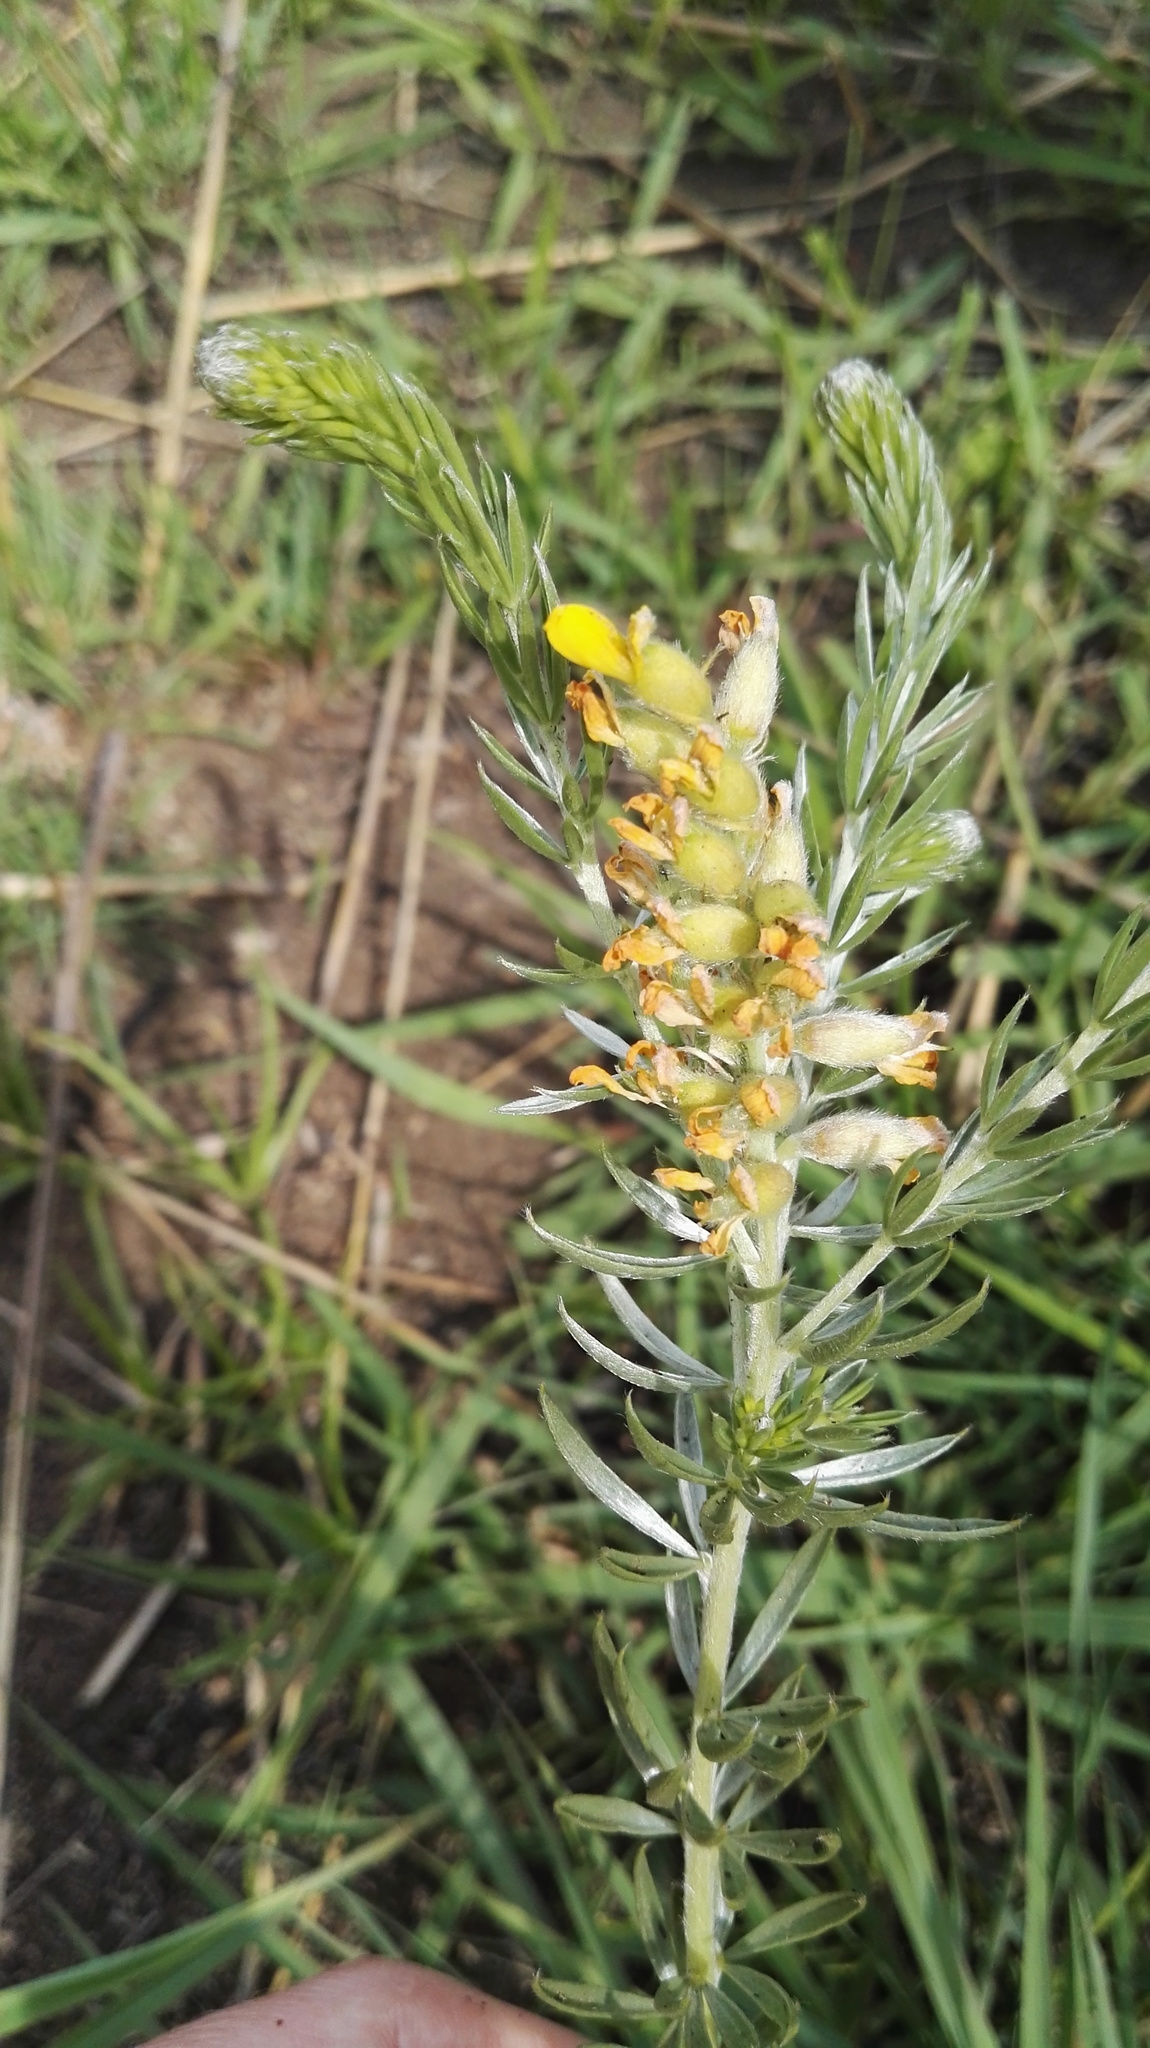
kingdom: Plantae
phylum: Tracheophyta
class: Magnoliopsida
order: Fabales
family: Fabaceae
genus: Pearsonia
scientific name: Pearsonia sessilifolia
